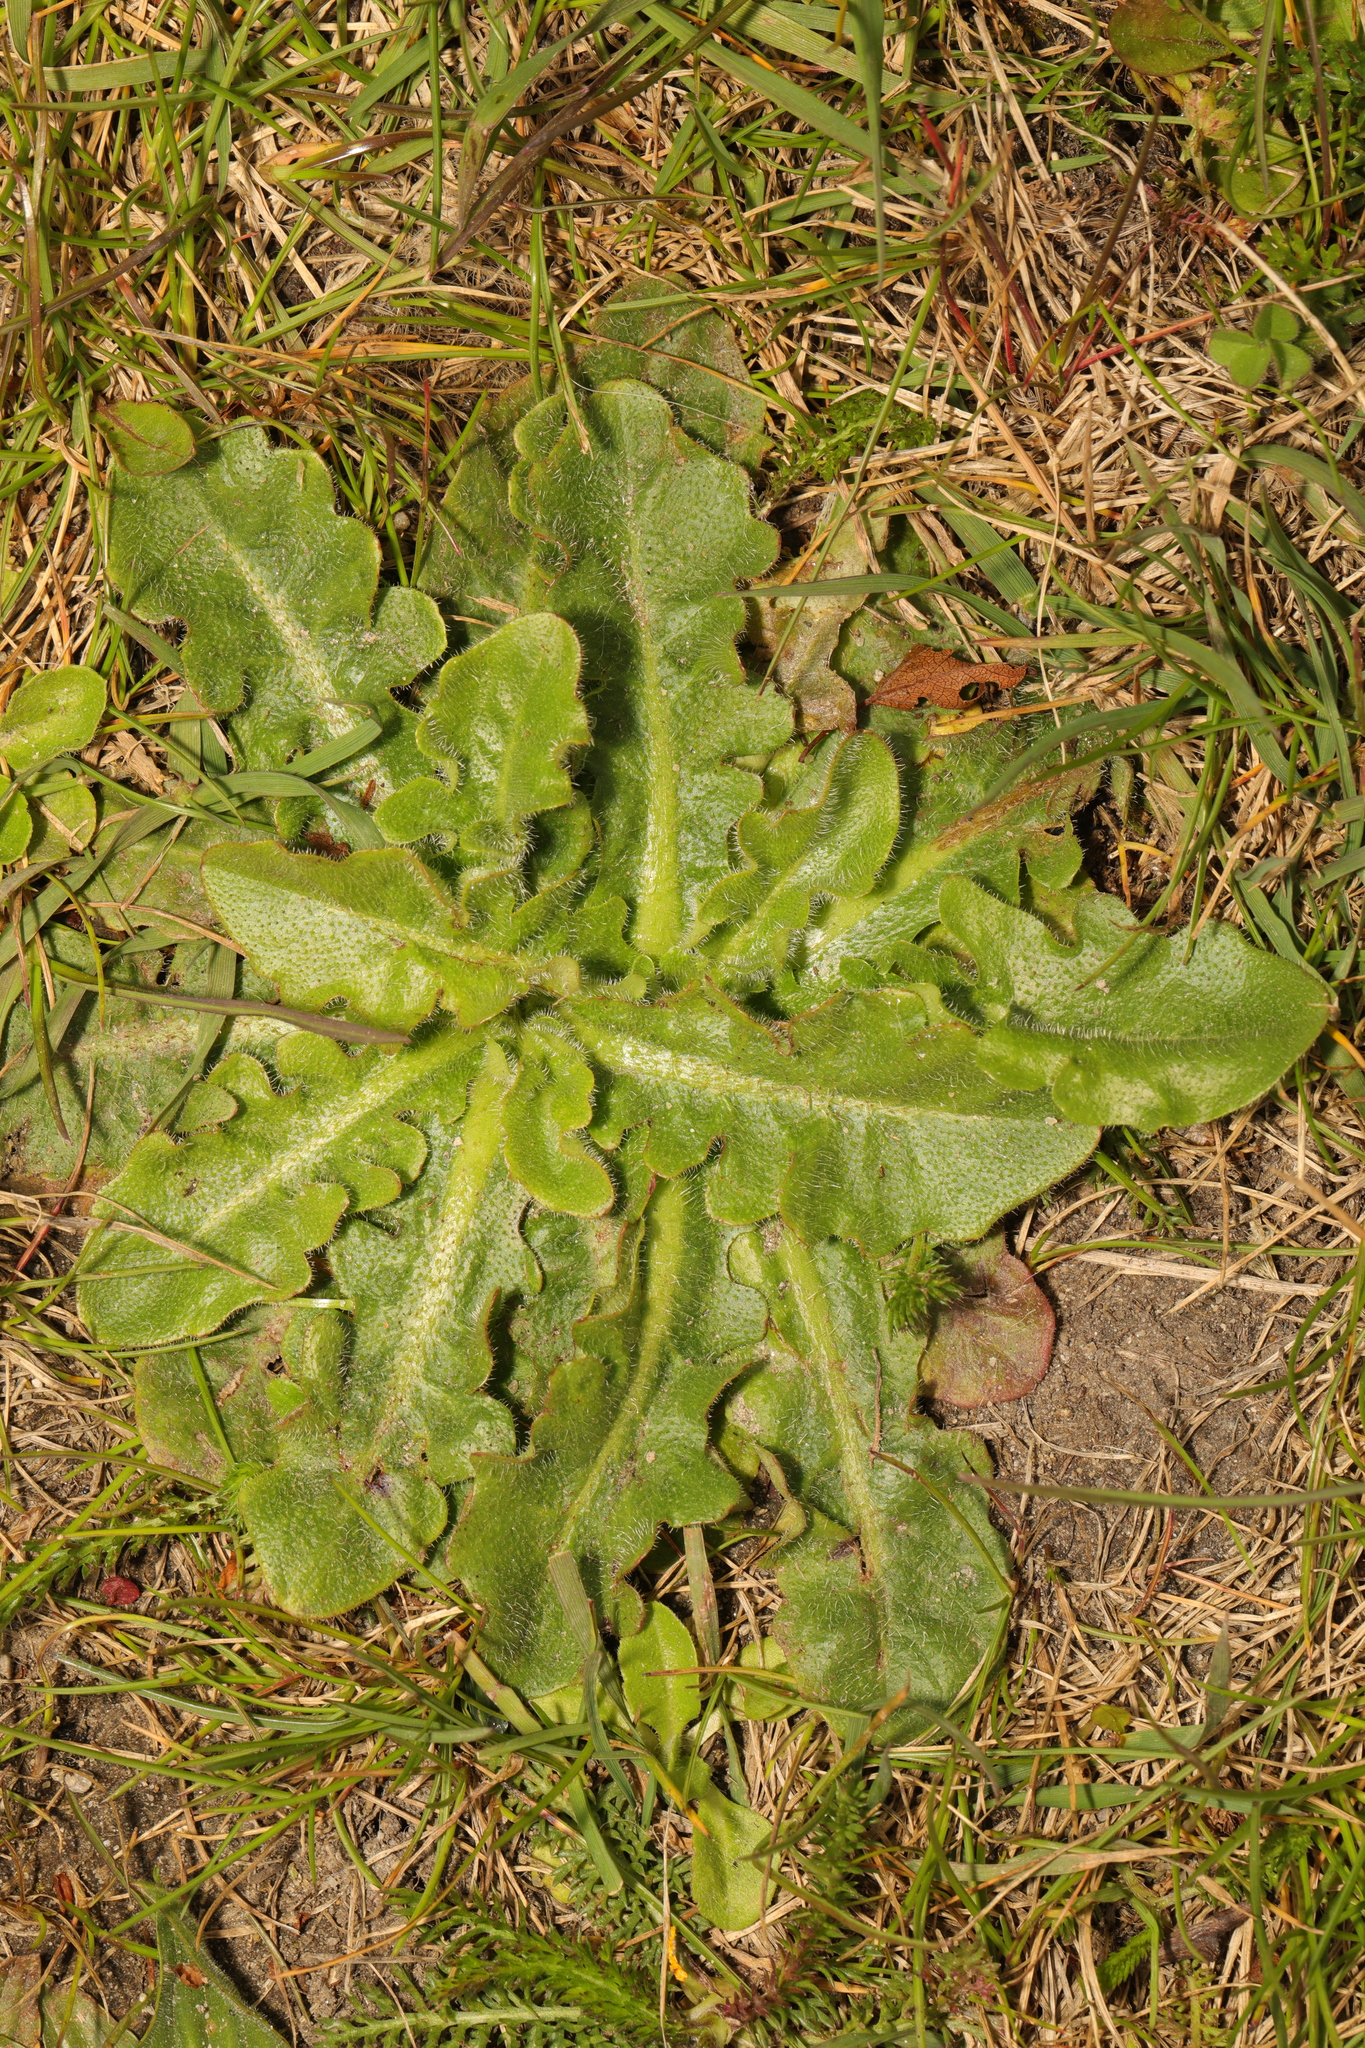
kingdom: Plantae
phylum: Tracheophyta
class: Magnoliopsida
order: Asterales
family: Asteraceae
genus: Hypochaeris
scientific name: Hypochaeris radicata
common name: Flatweed
